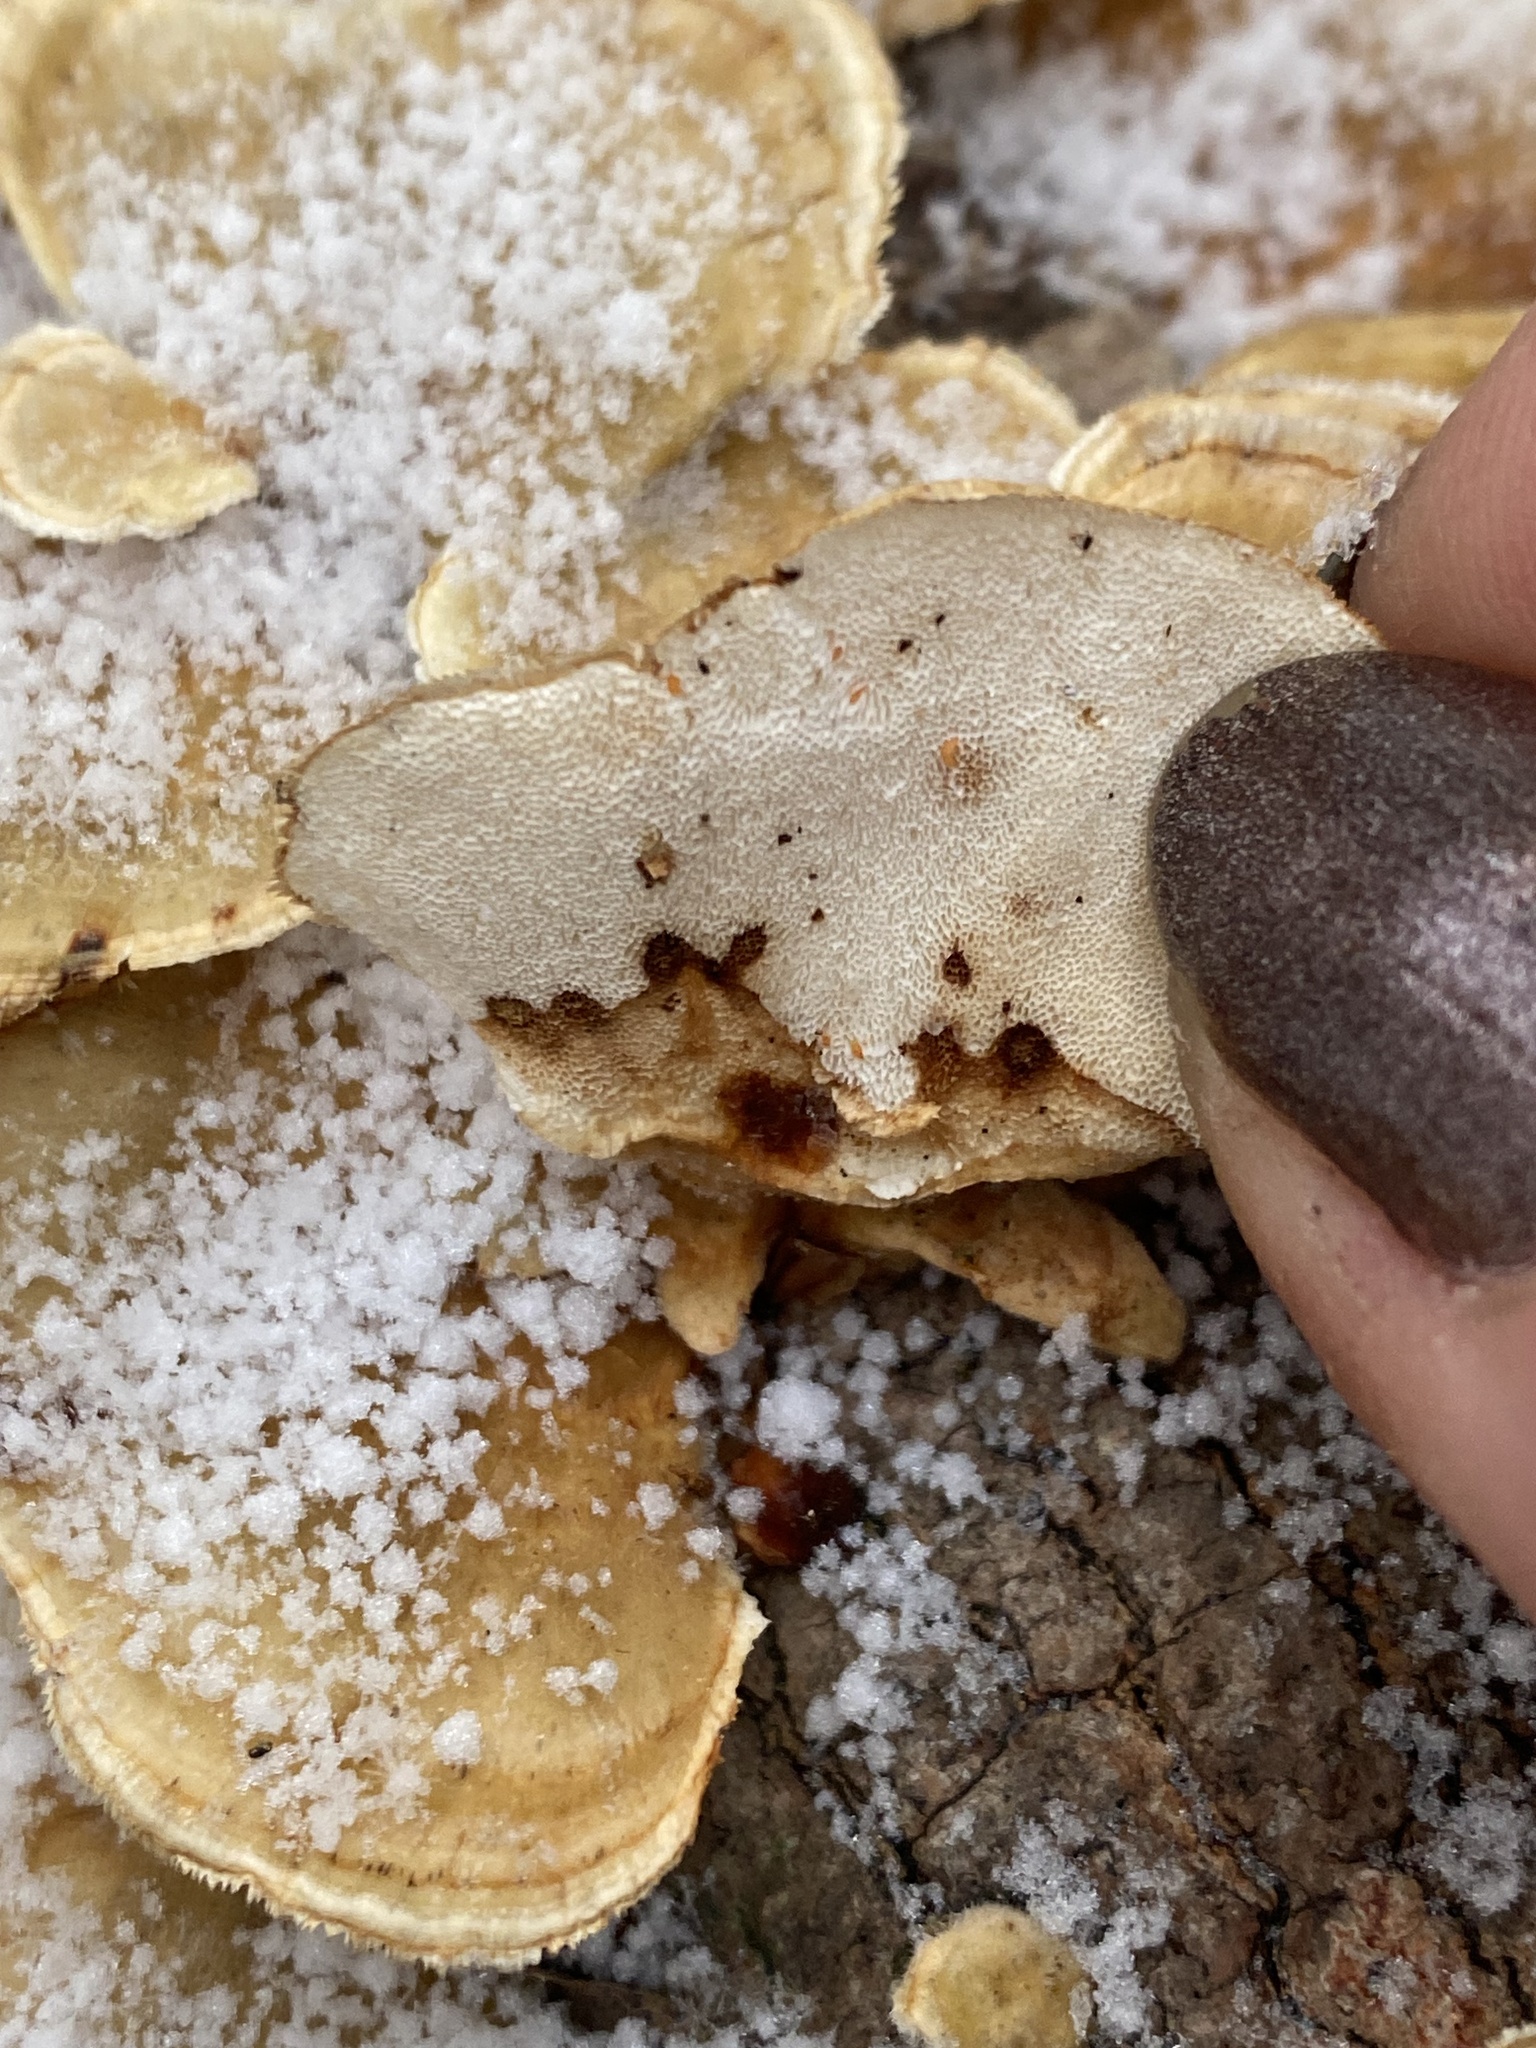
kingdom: Fungi
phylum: Basidiomycota
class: Agaricomycetes
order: Polyporales
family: Polyporaceae
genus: Trametes
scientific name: Trametes ochracea
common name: Ochre bracket
